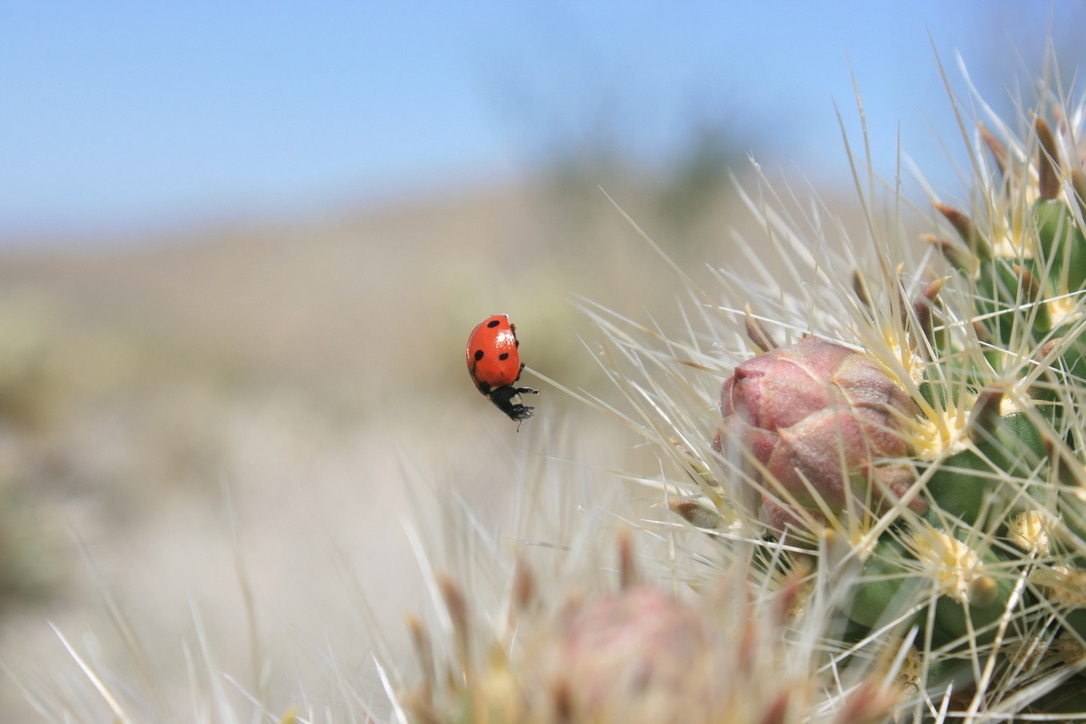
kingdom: Animalia
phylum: Arthropoda
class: Insecta
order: Coleoptera
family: Coccinellidae
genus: Coccinella
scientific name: Coccinella septempunctata
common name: Sevenspotted lady beetle
